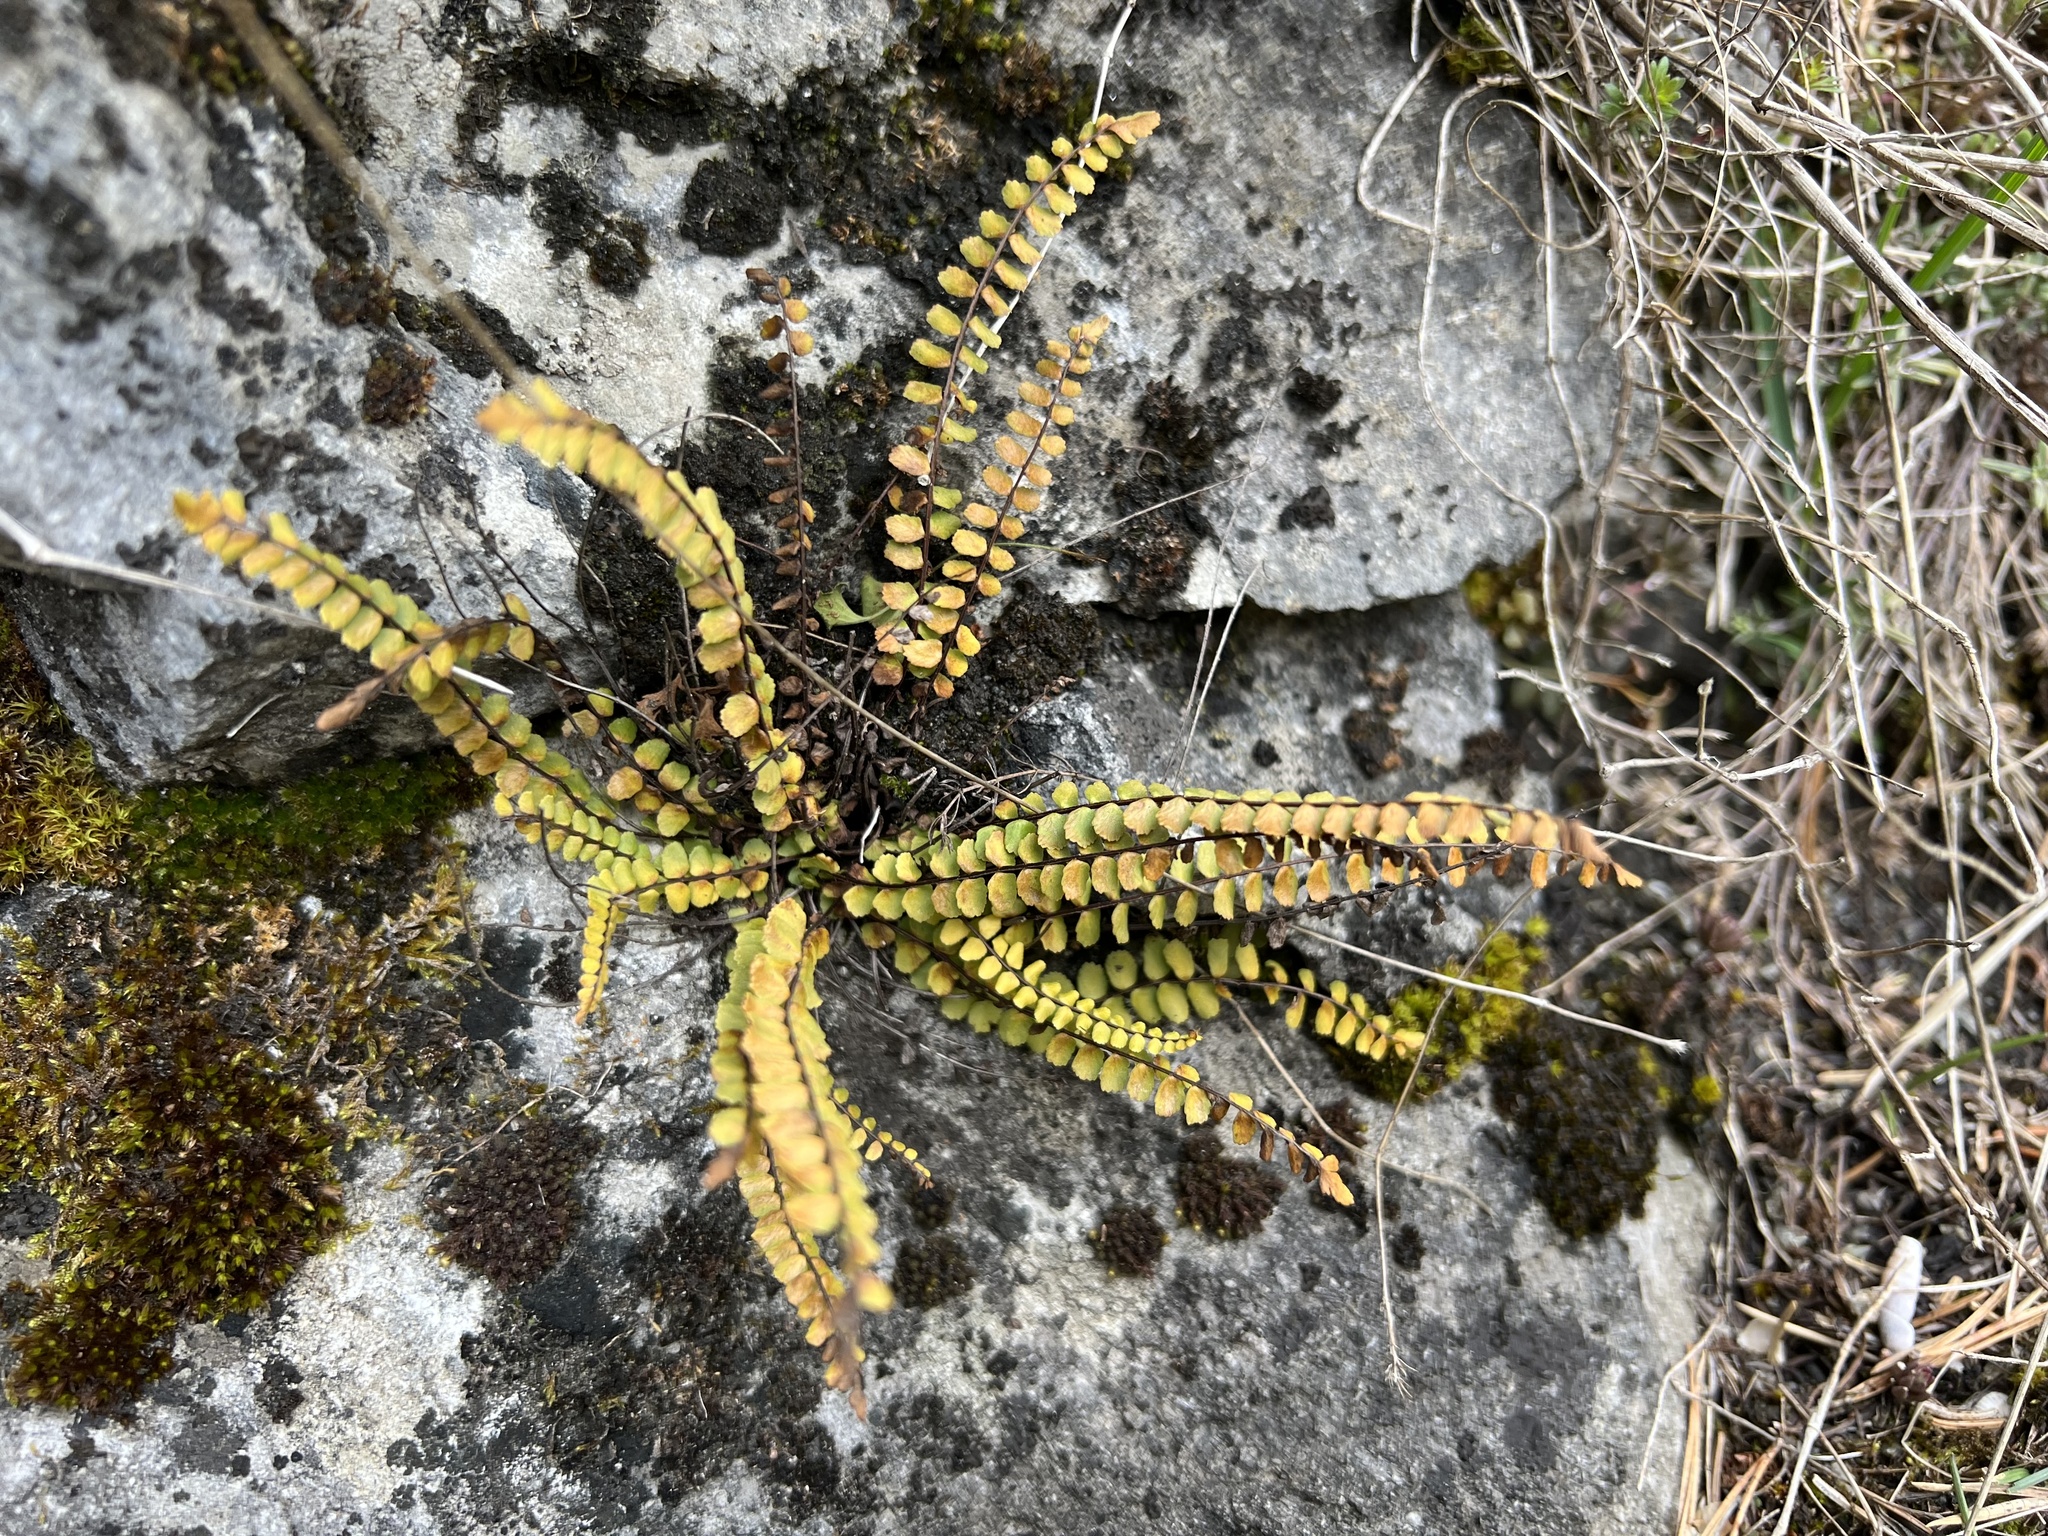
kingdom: Plantae
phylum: Tracheophyta
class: Polypodiopsida
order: Polypodiales
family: Aspleniaceae
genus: Asplenium
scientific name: Asplenium trichomanes
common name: Maidenhair spleenwort
